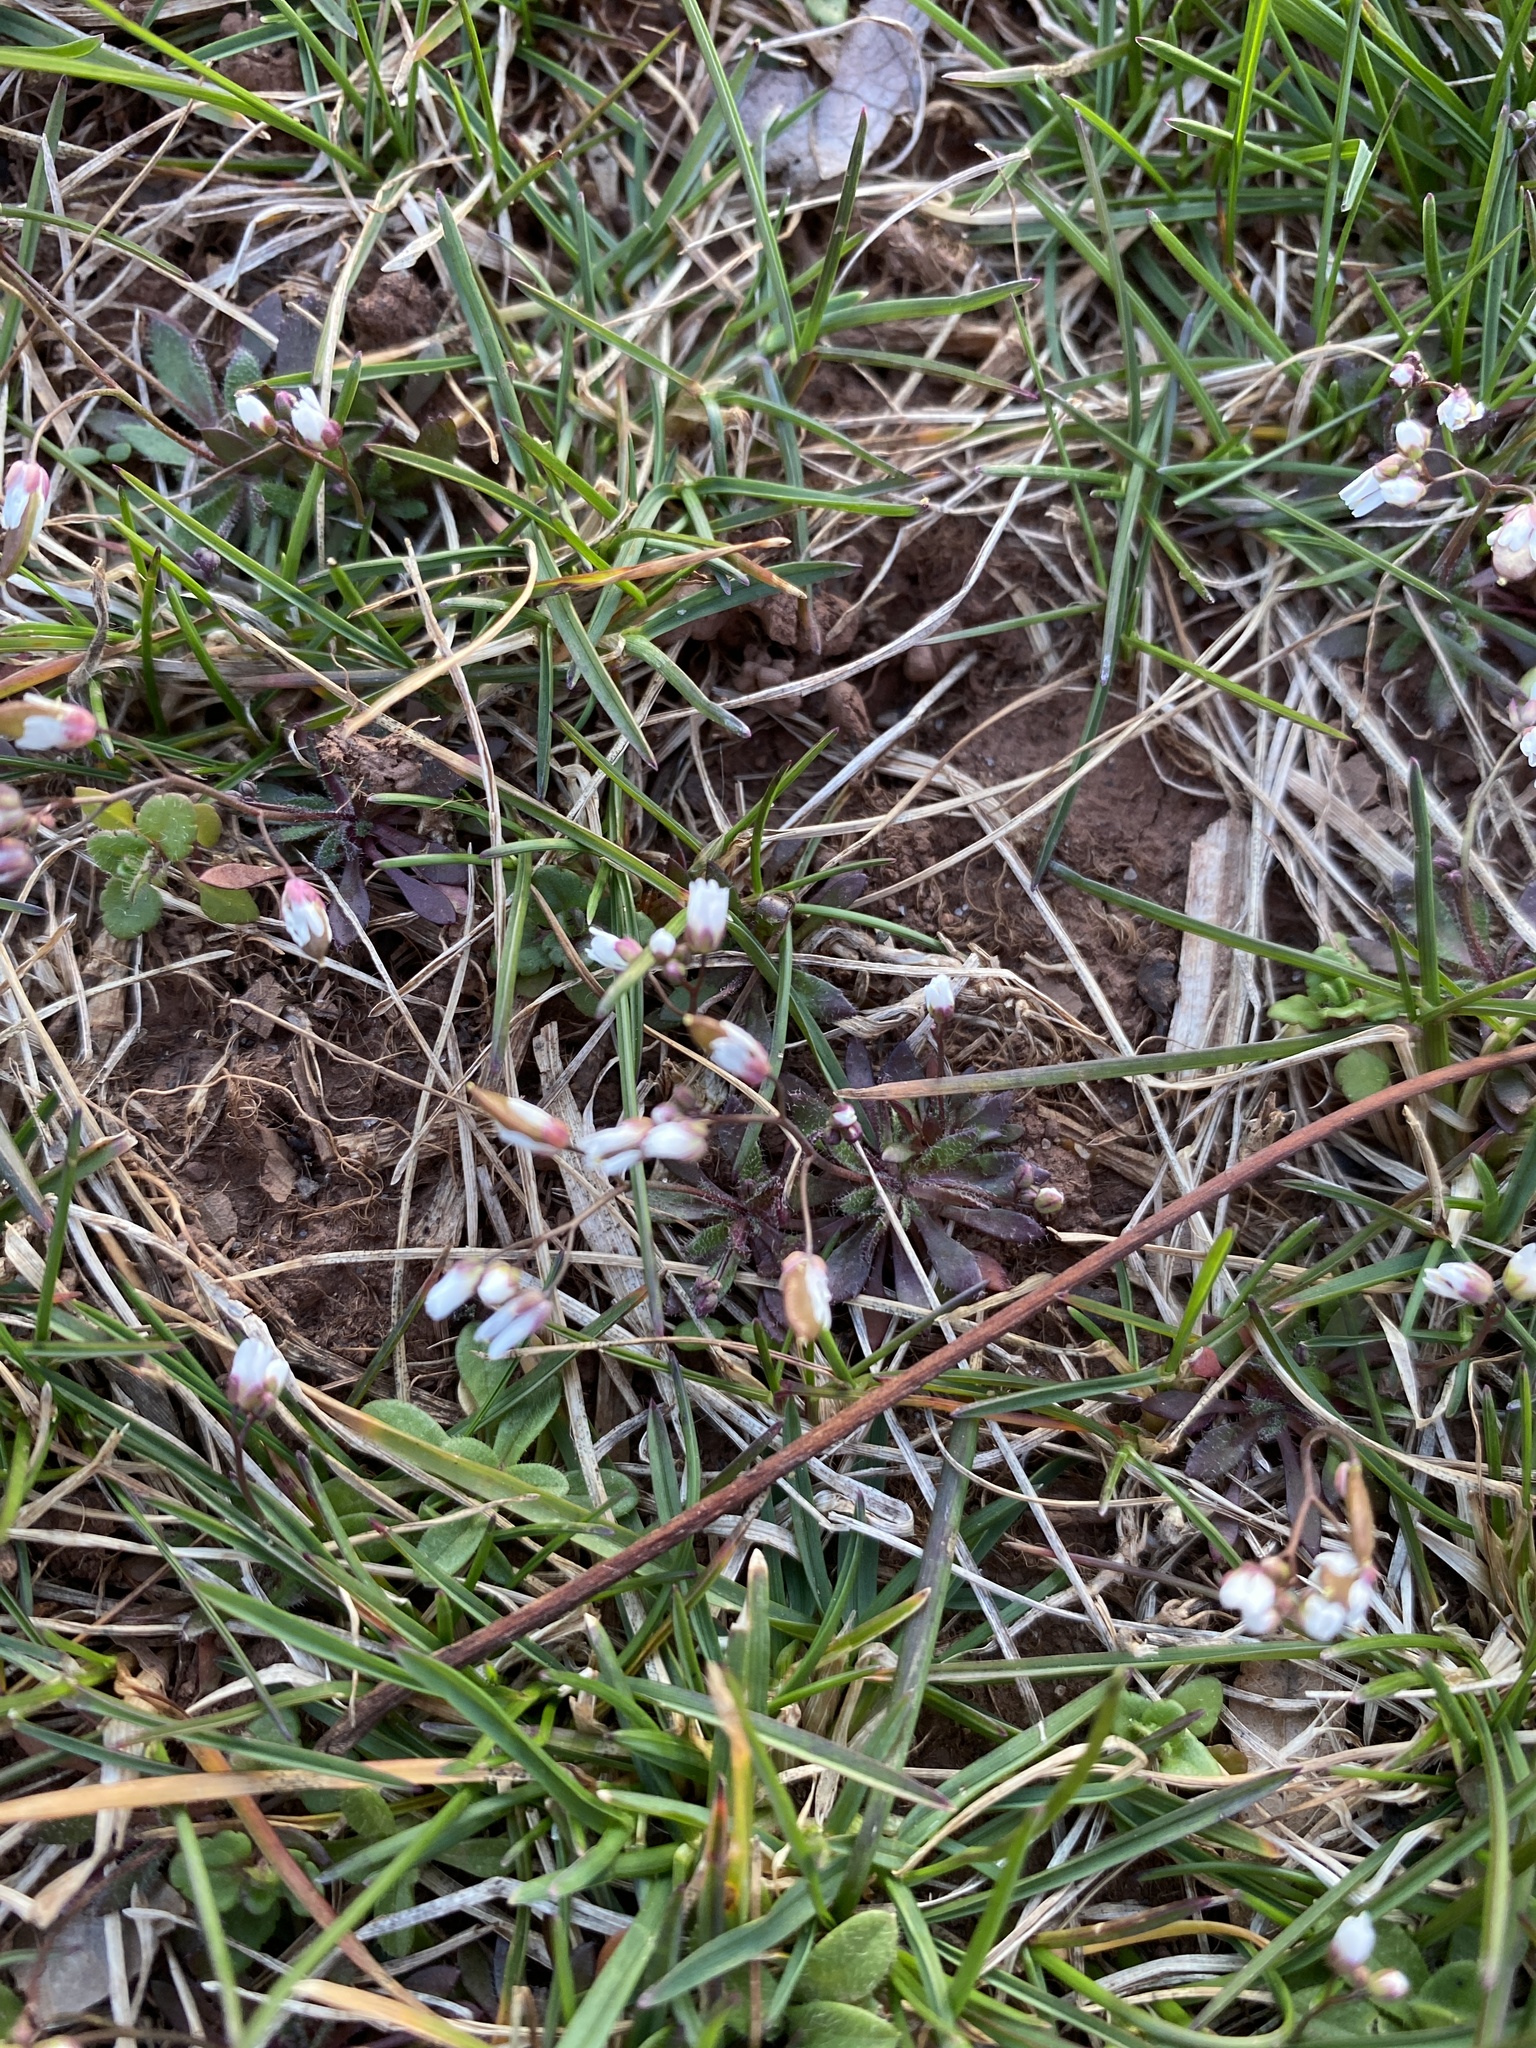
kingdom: Plantae
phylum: Tracheophyta
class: Magnoliopsida
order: Brassicales
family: Brassicaceae
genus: Draba
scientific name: Draba verna
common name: Spring draba
